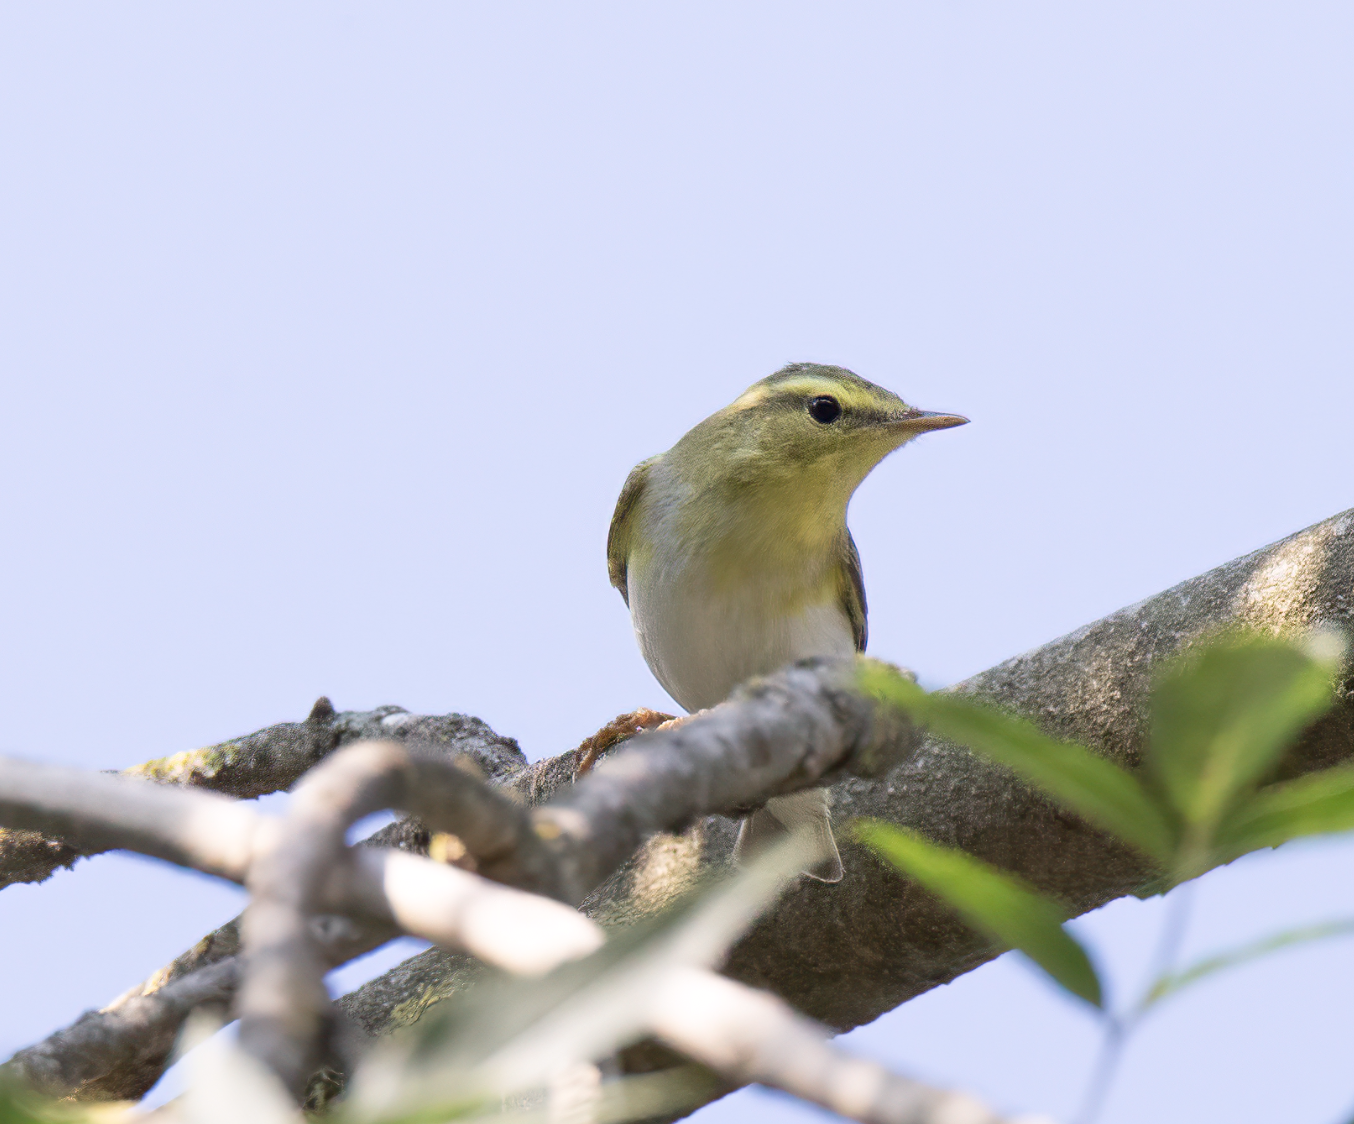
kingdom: Animalia
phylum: Chordata
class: Aves
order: Passeriformes
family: Phylloscopidae
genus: Phylloscopus
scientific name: Phylloscopus sibillatrix
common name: Wood warbler
